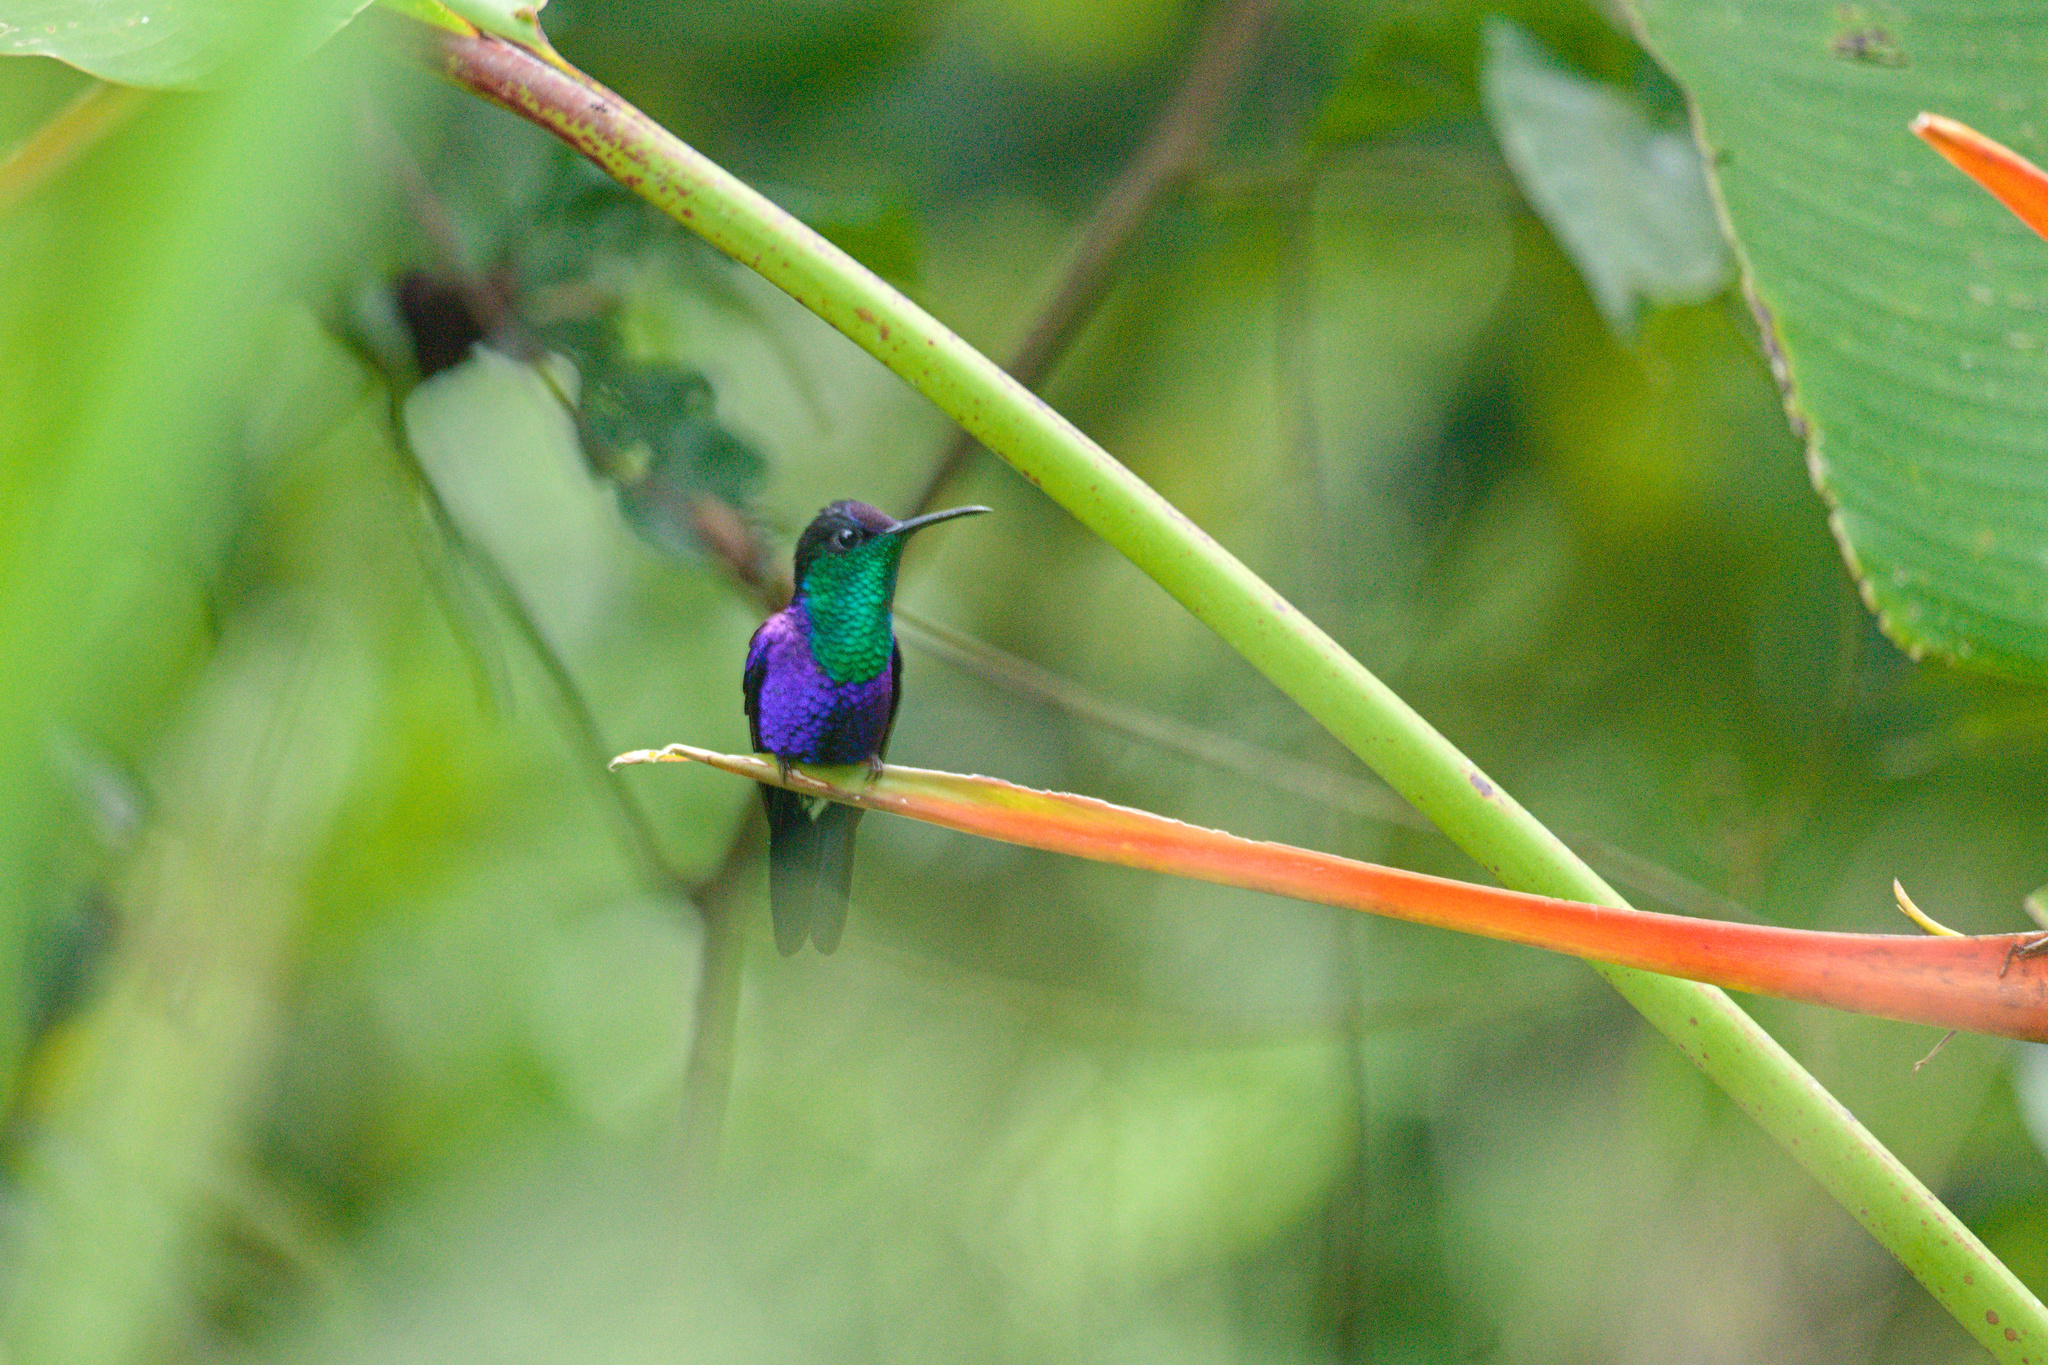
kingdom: Animalia
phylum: Chordata
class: Aves
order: Apodiformes
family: Trochilidae
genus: Thalurania
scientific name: Thalurania colombica
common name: Crowned woodnymph
